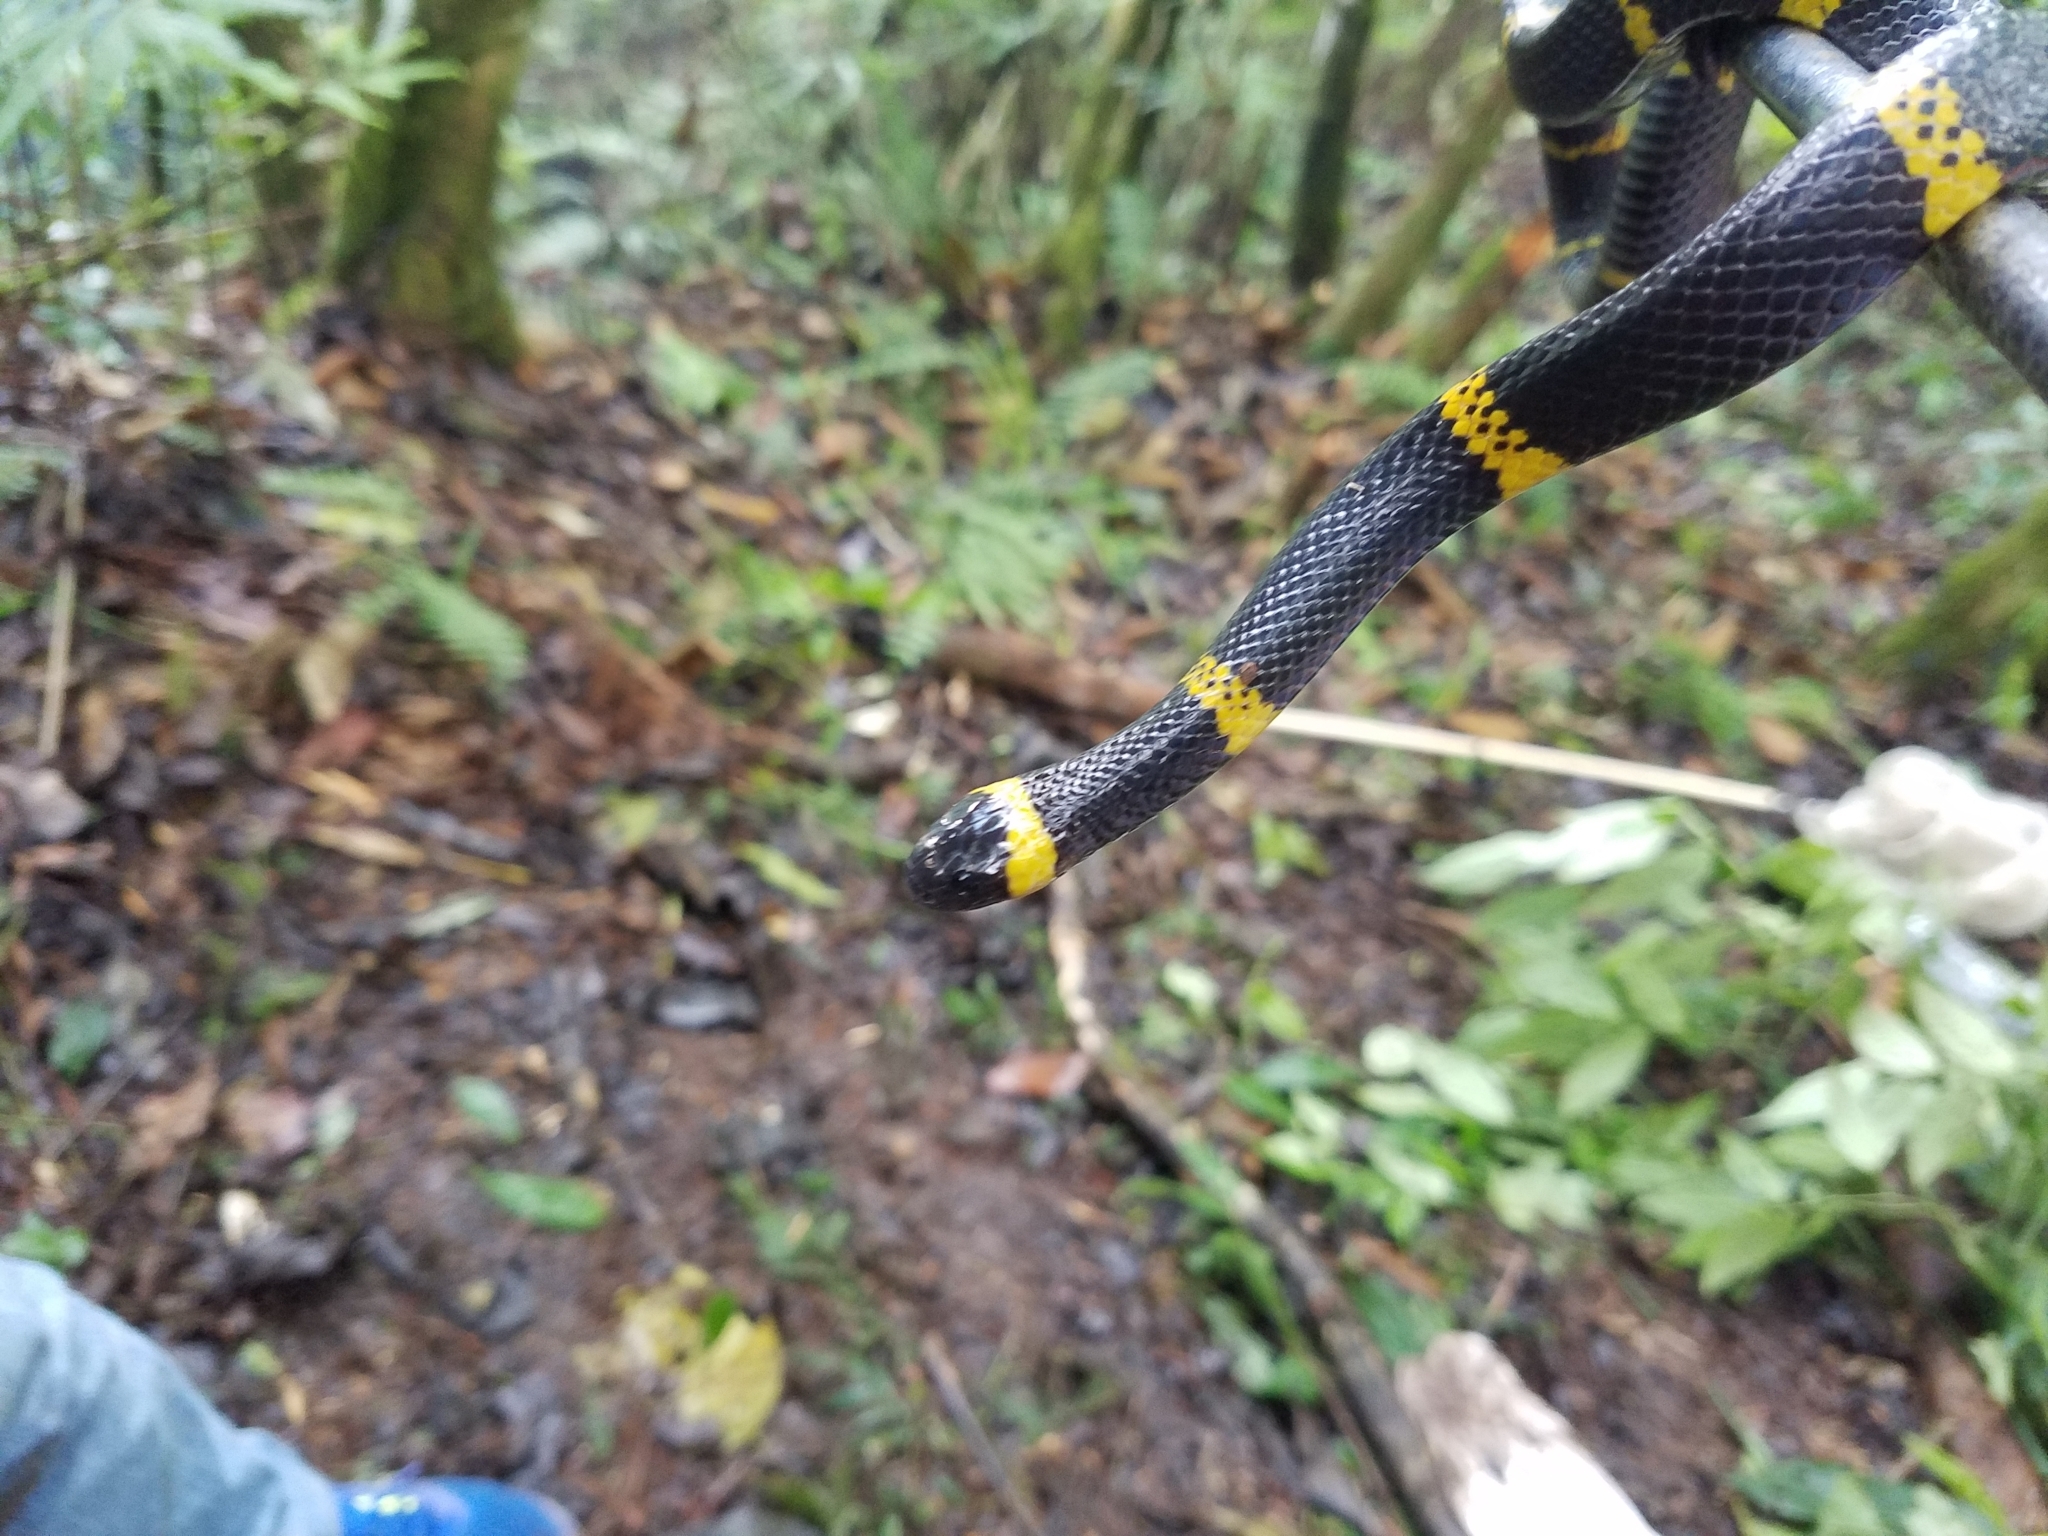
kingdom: Animalia
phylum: Chordata
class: Squamata
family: Colubridae
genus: Geophis
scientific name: Geophis
